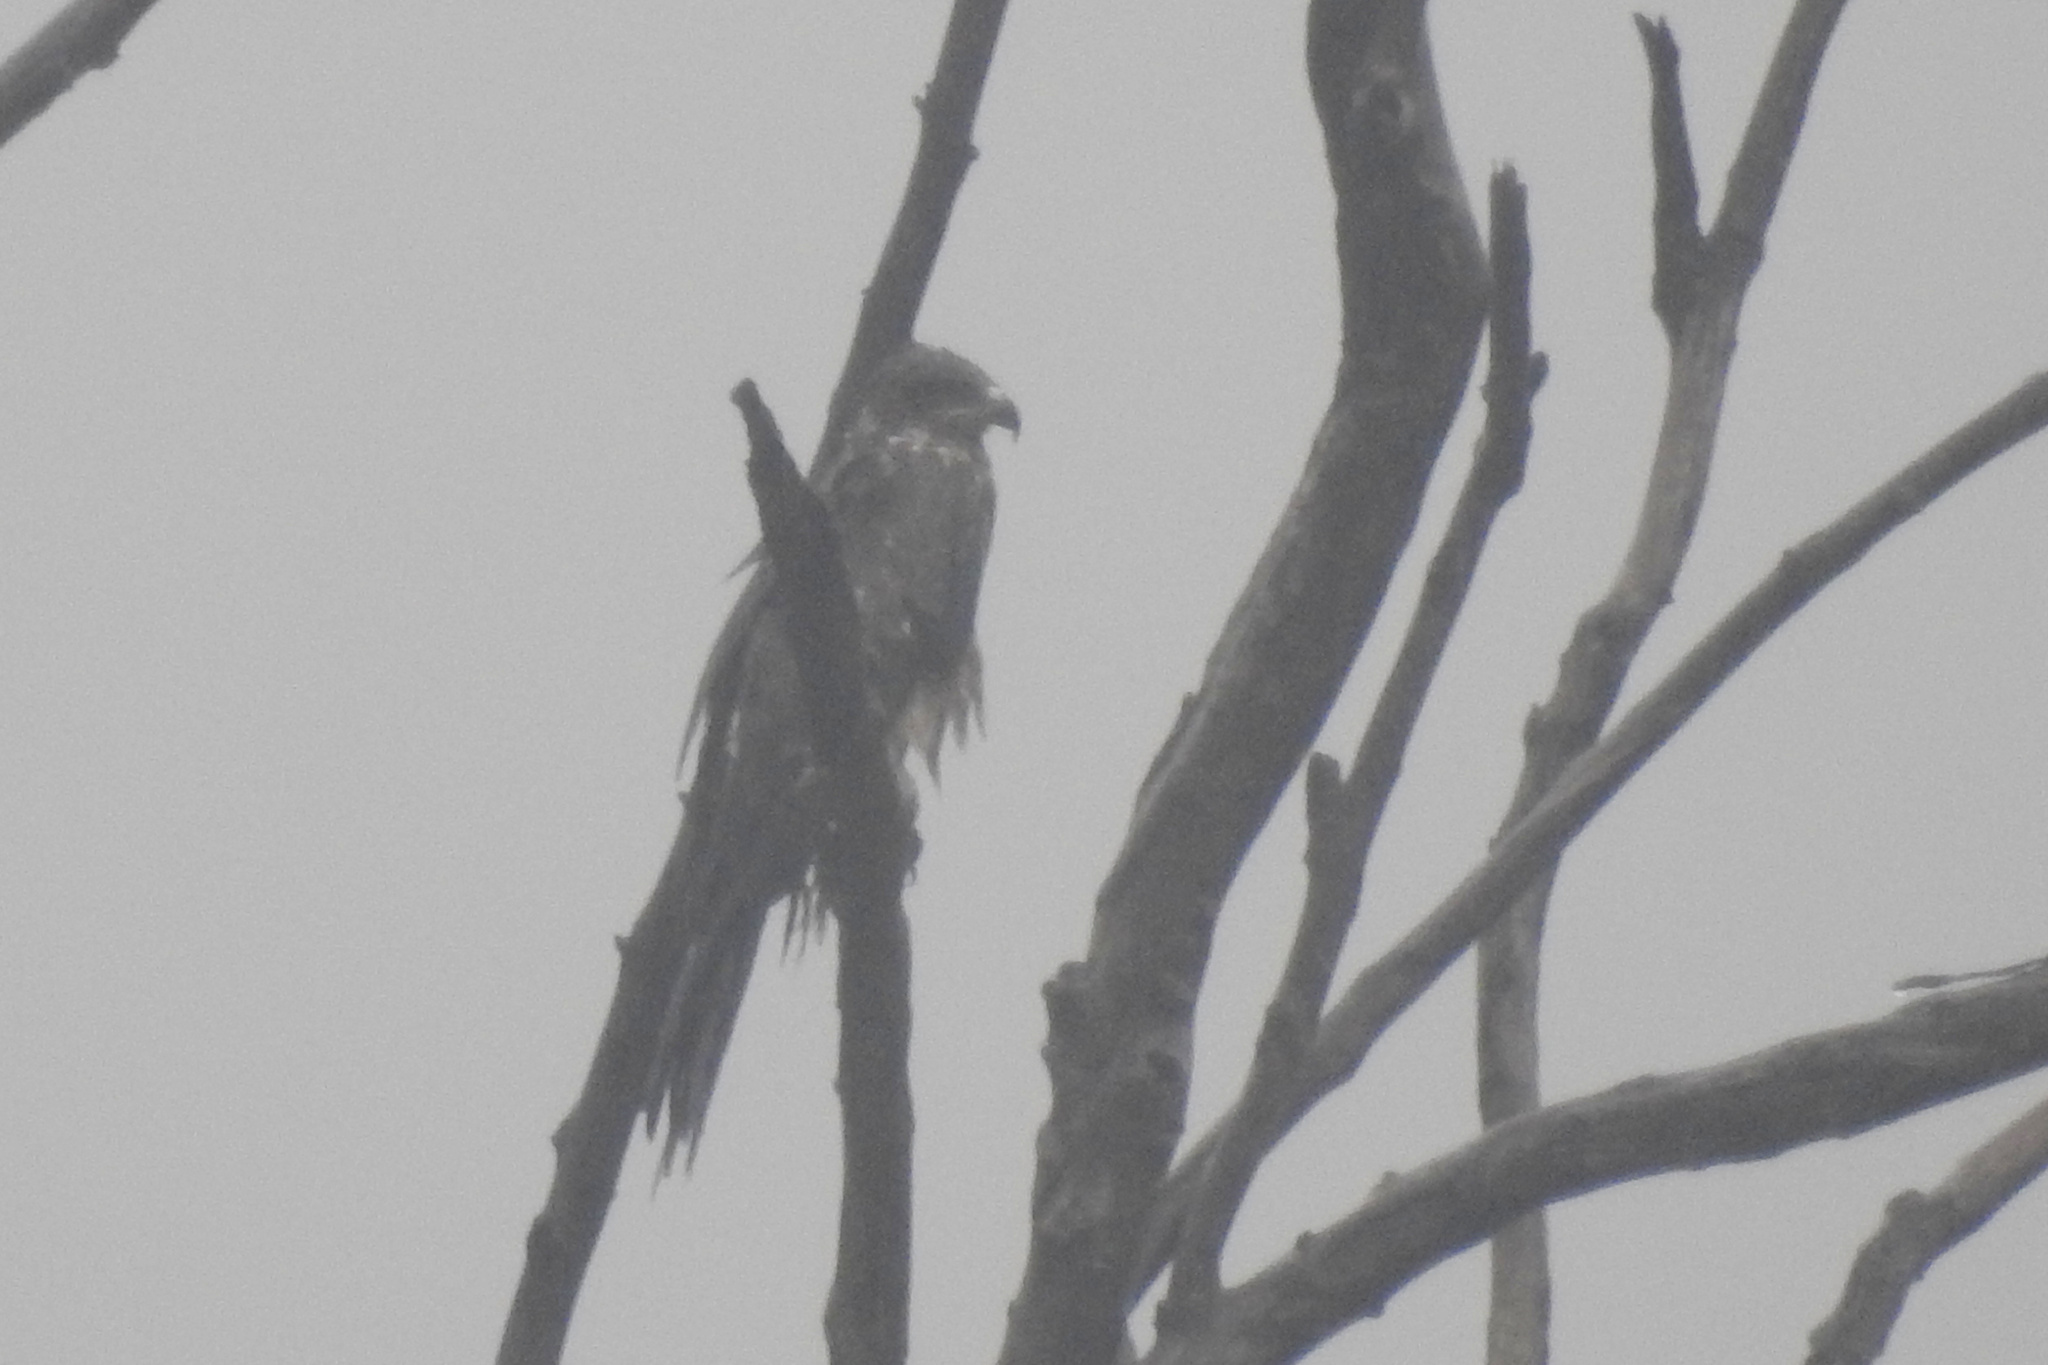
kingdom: Animalia
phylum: Chordata
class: Aves
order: Accipitriformes
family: Accipitridae
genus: Milvus
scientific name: Milvus migrans
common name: Black kite
